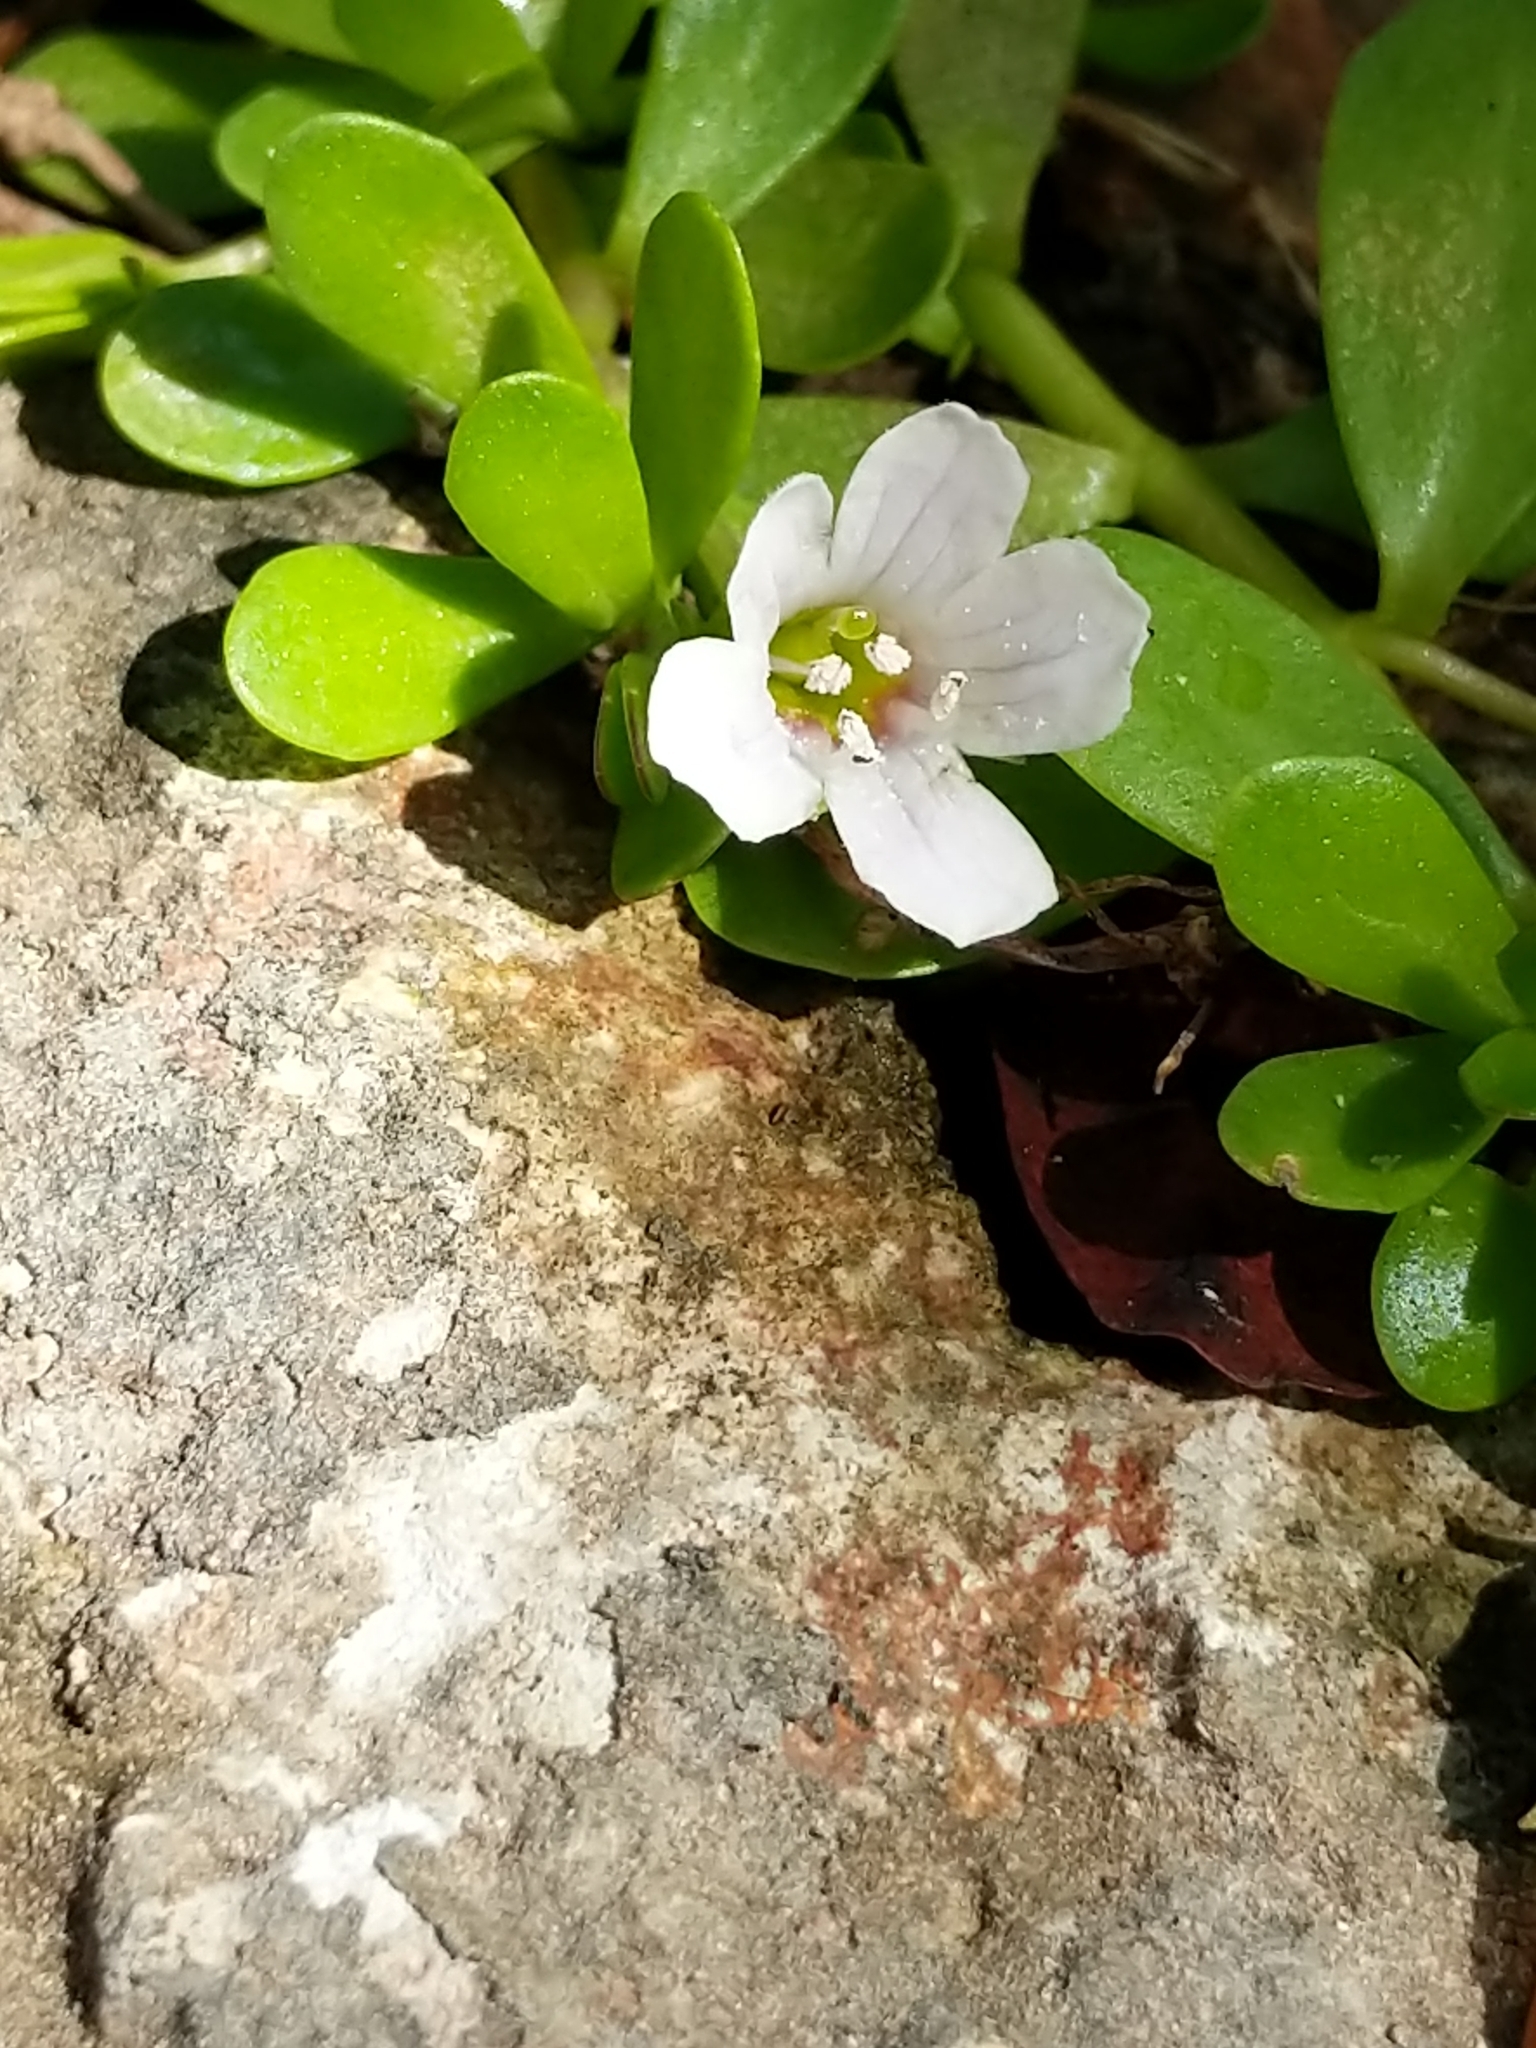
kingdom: Plantae
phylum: Tracheophyta
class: Magnoliopsida
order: Lamiales
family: Plantaginaceae
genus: Bacopa
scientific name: Bacopa monnieri
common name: Indian-pennywort
